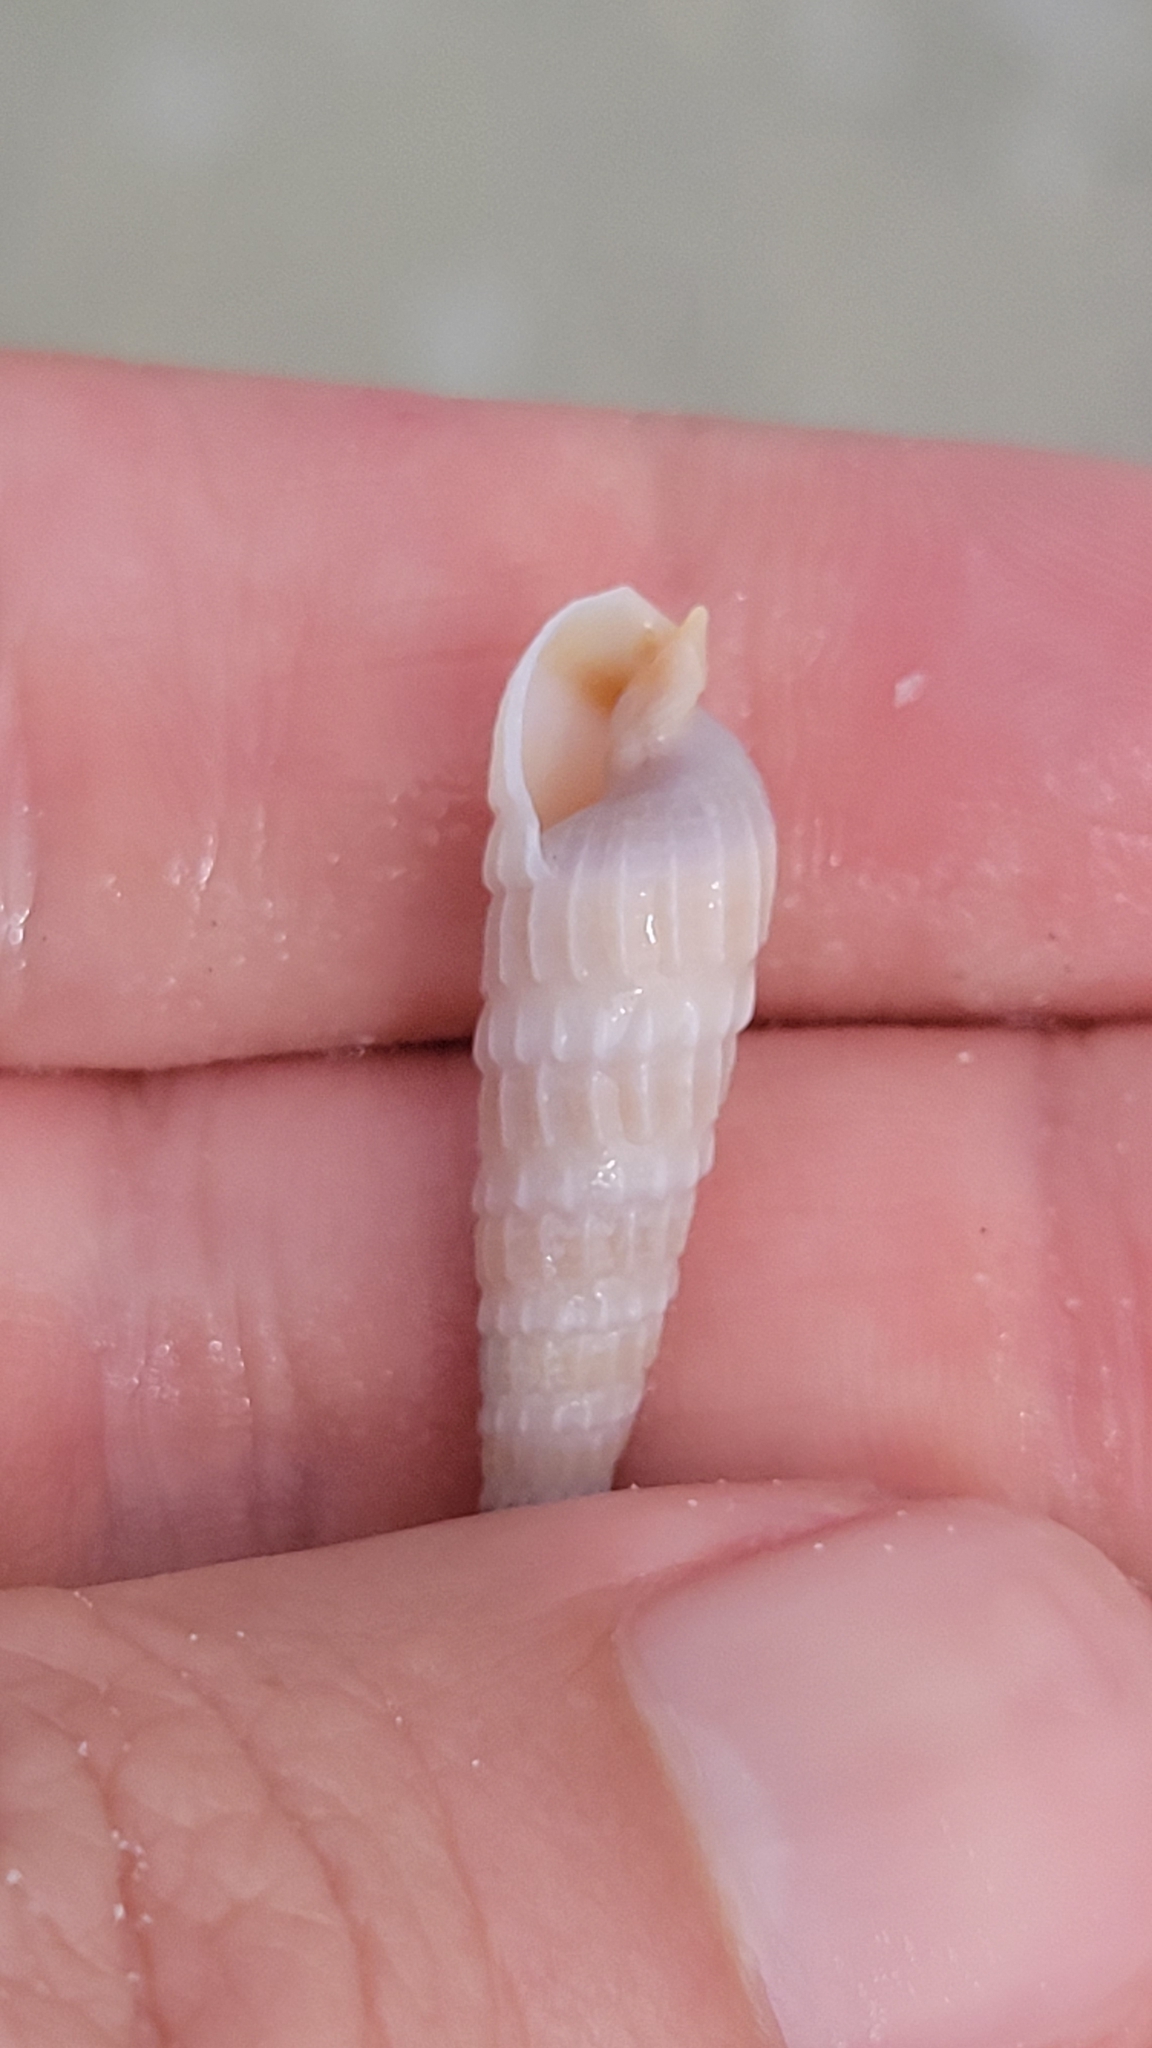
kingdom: Animalia
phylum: Mollusca
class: Gastropoda
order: Neogastropoda
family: Terebridae
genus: Neoterebra
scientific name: Neoterebra dislocata
